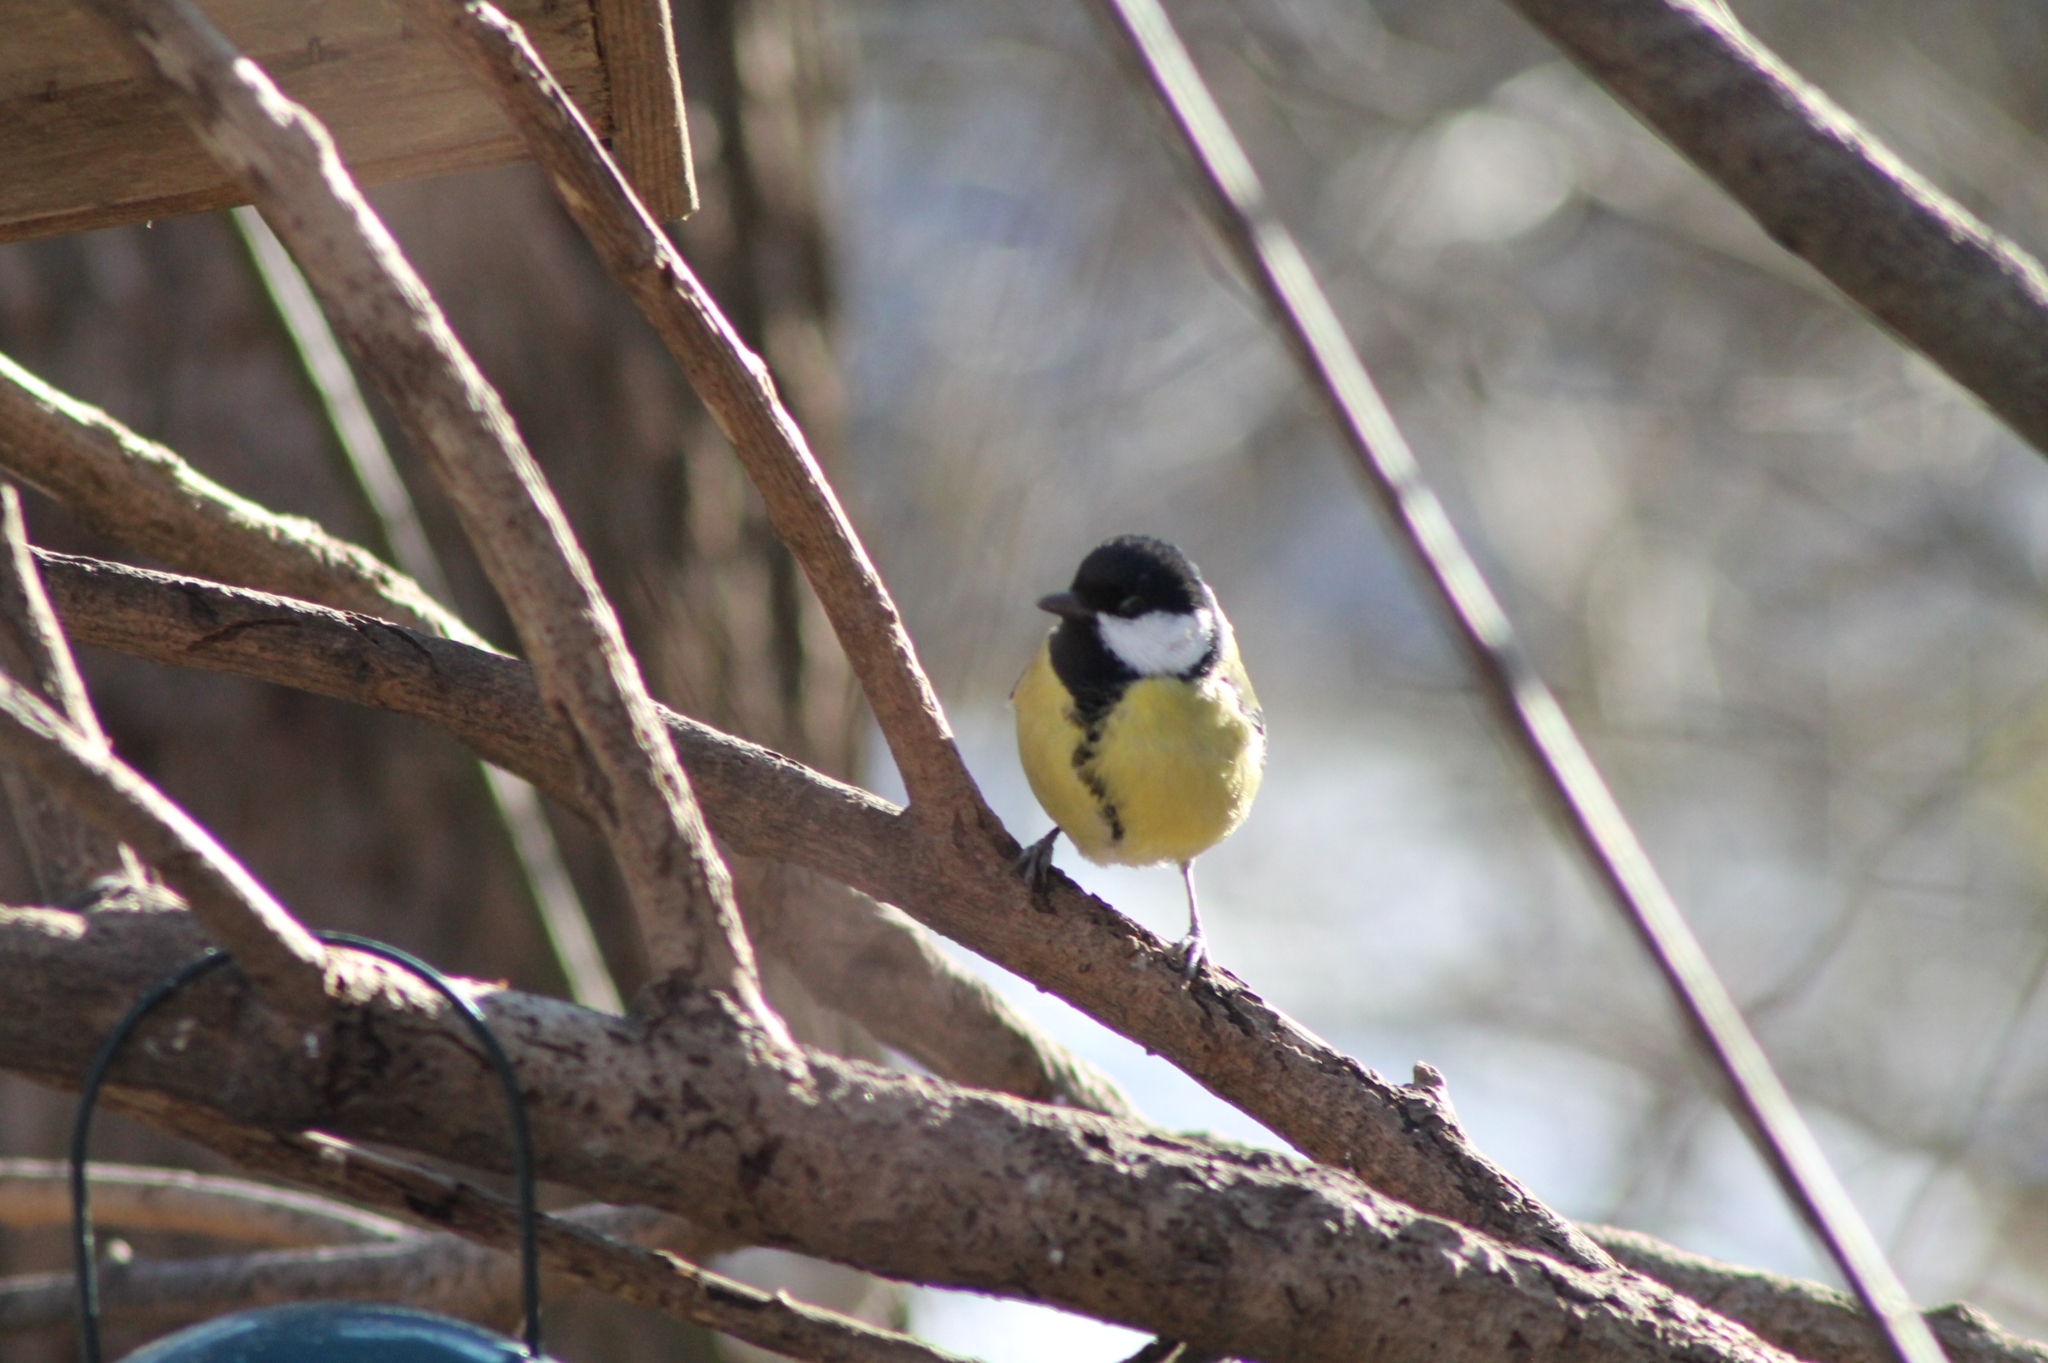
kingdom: Animalia
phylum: Chordata
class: Aves
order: Passeriformes
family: Paridae
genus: Parus
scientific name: Parus major
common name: Great tit
